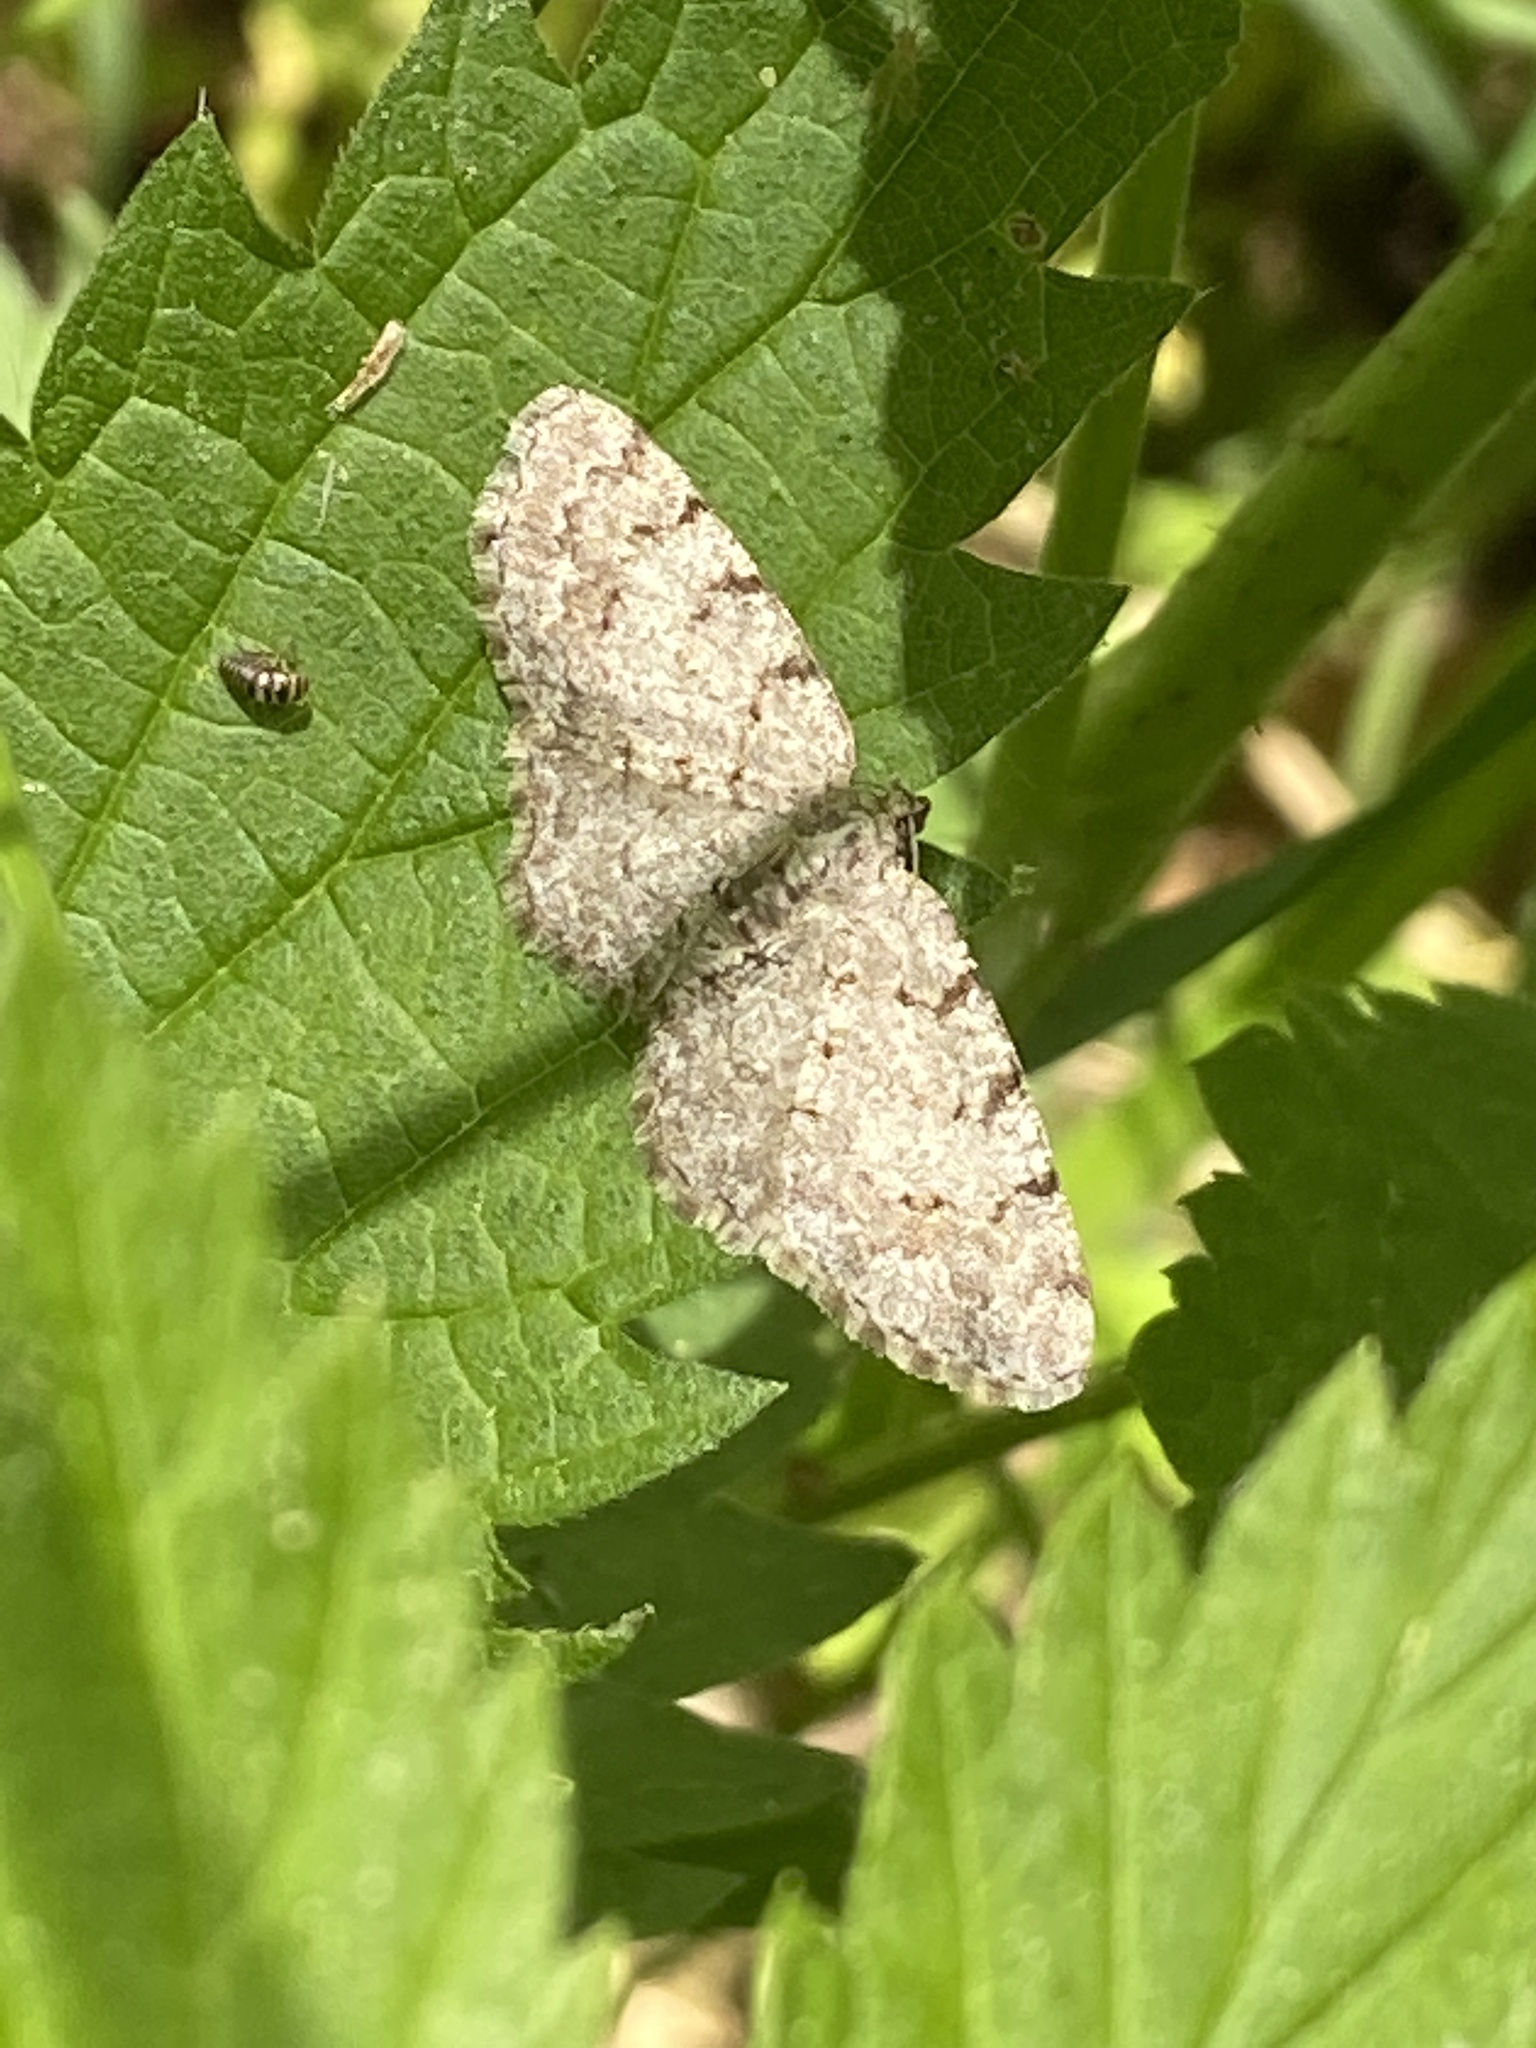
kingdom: Animalia
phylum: Arthropoda
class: Insecta
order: Lepidoptera
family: Geometridae
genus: Aethalura
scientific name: Aethalura punctulata
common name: Grey birch
